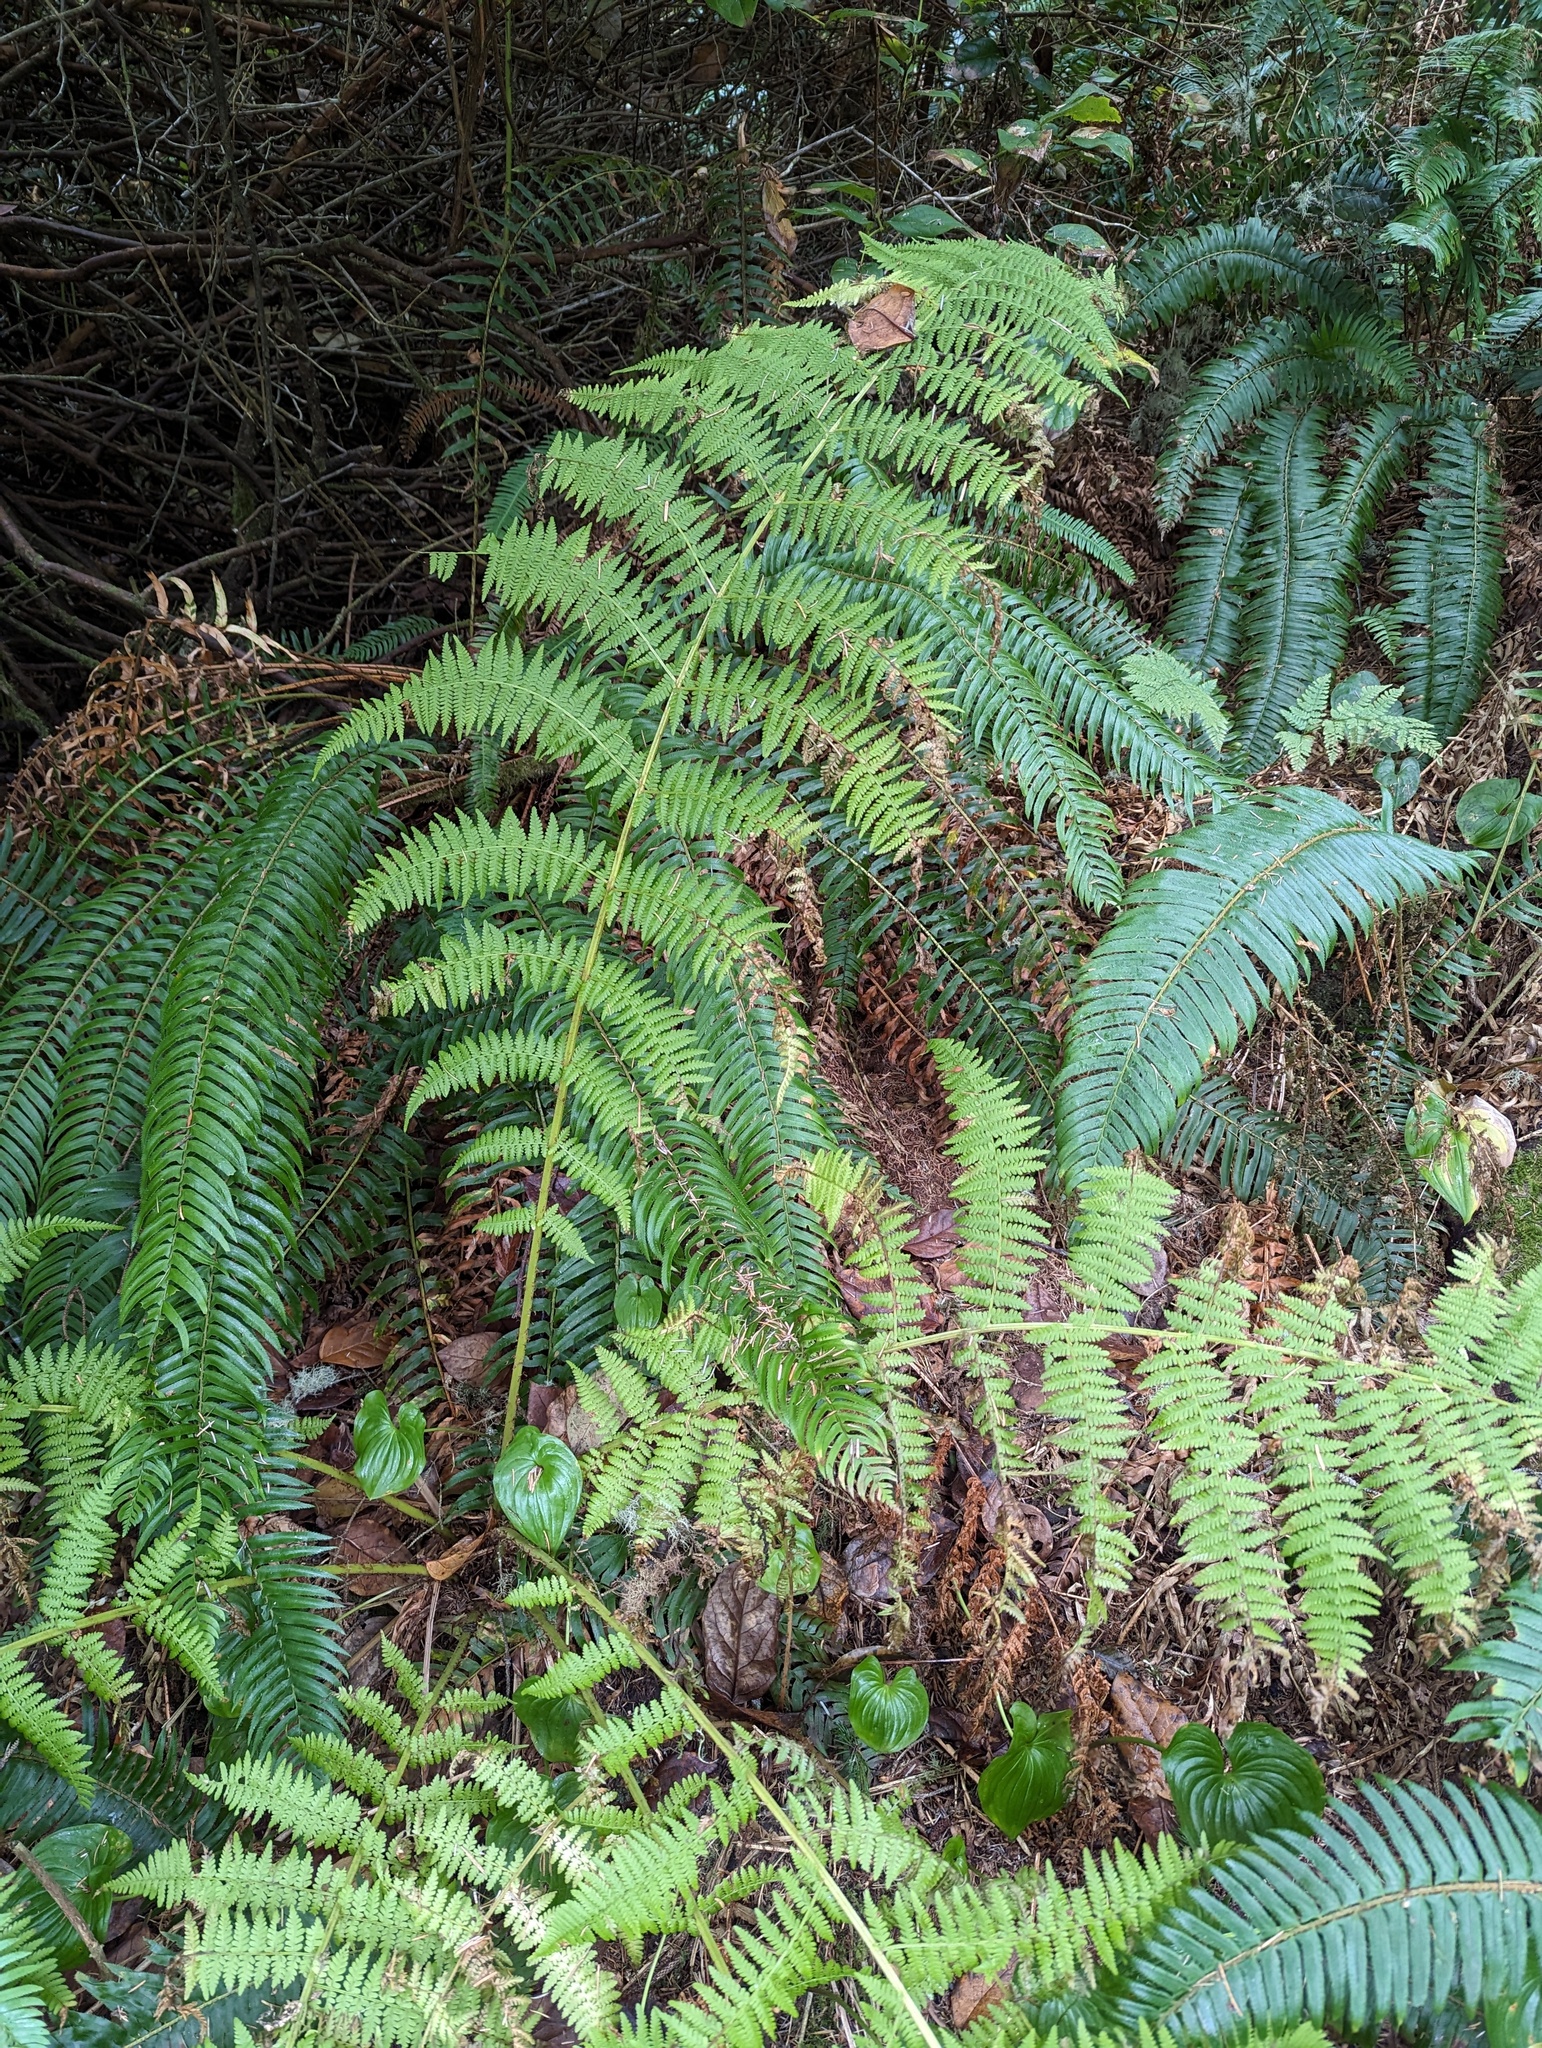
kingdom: Plantae
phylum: Tracheophyta
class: Polypodiopsida
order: Polypodiales
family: Athyriaceae
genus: Athyrium
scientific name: Athyrium filix-femina
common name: Lady fern
